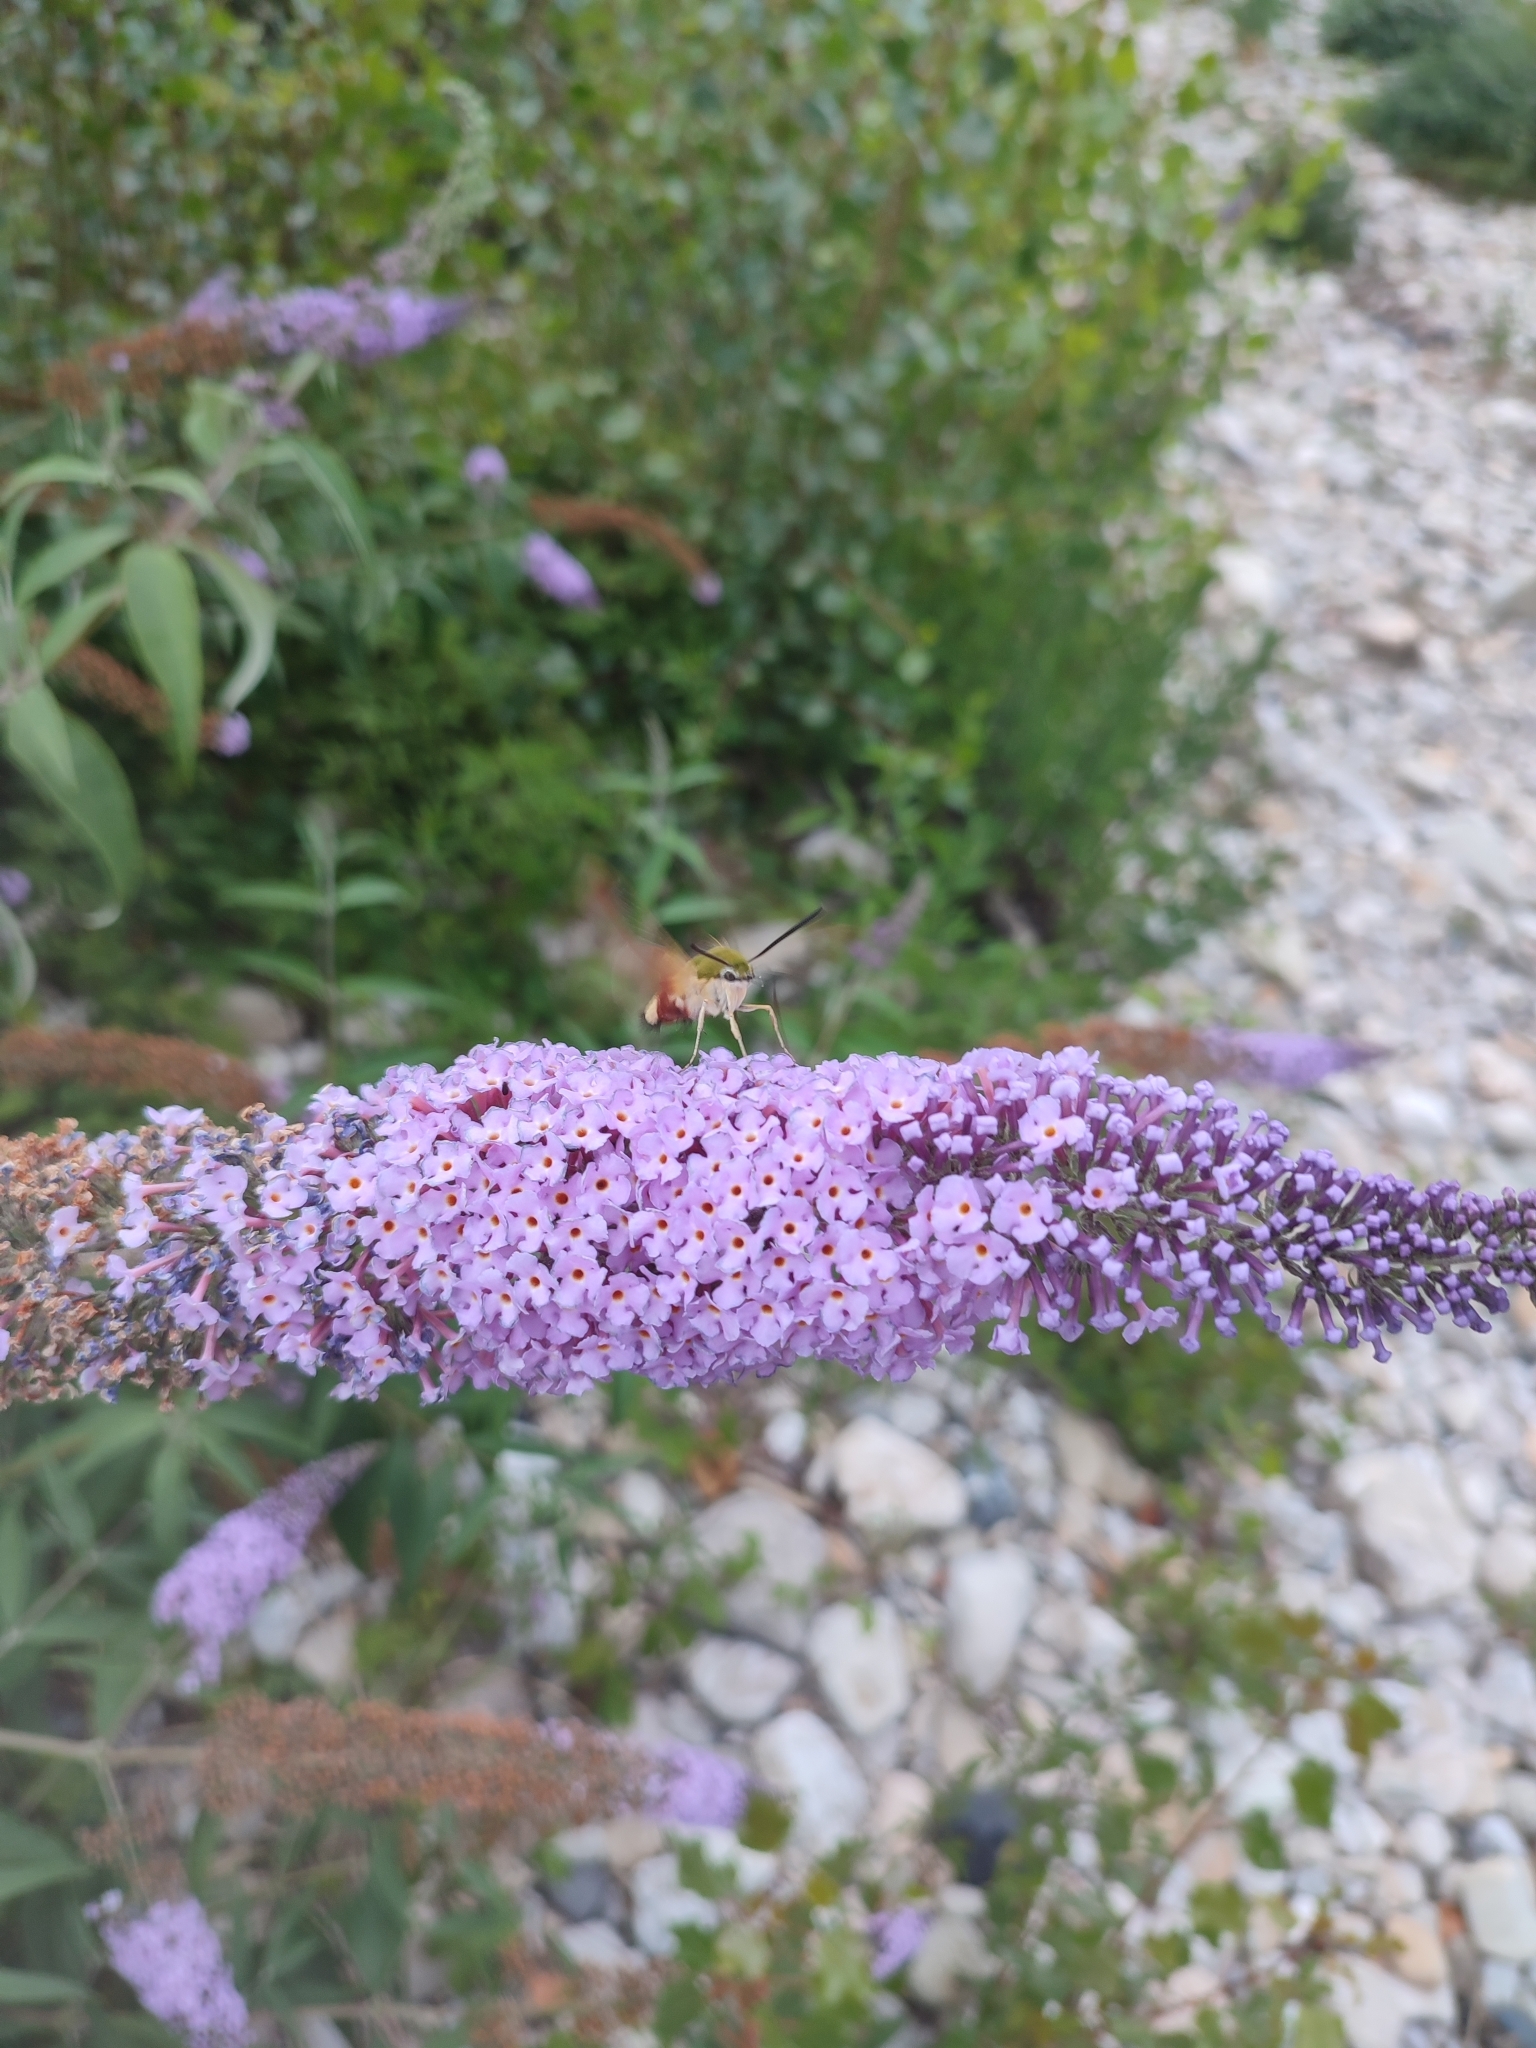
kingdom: Animalia
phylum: Arthropoda
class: Insecta
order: Lepidoptera
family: Sphingidae
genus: Hemaris
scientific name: Hemaris fuciformis
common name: Broad-bordered bee hawk-moth
